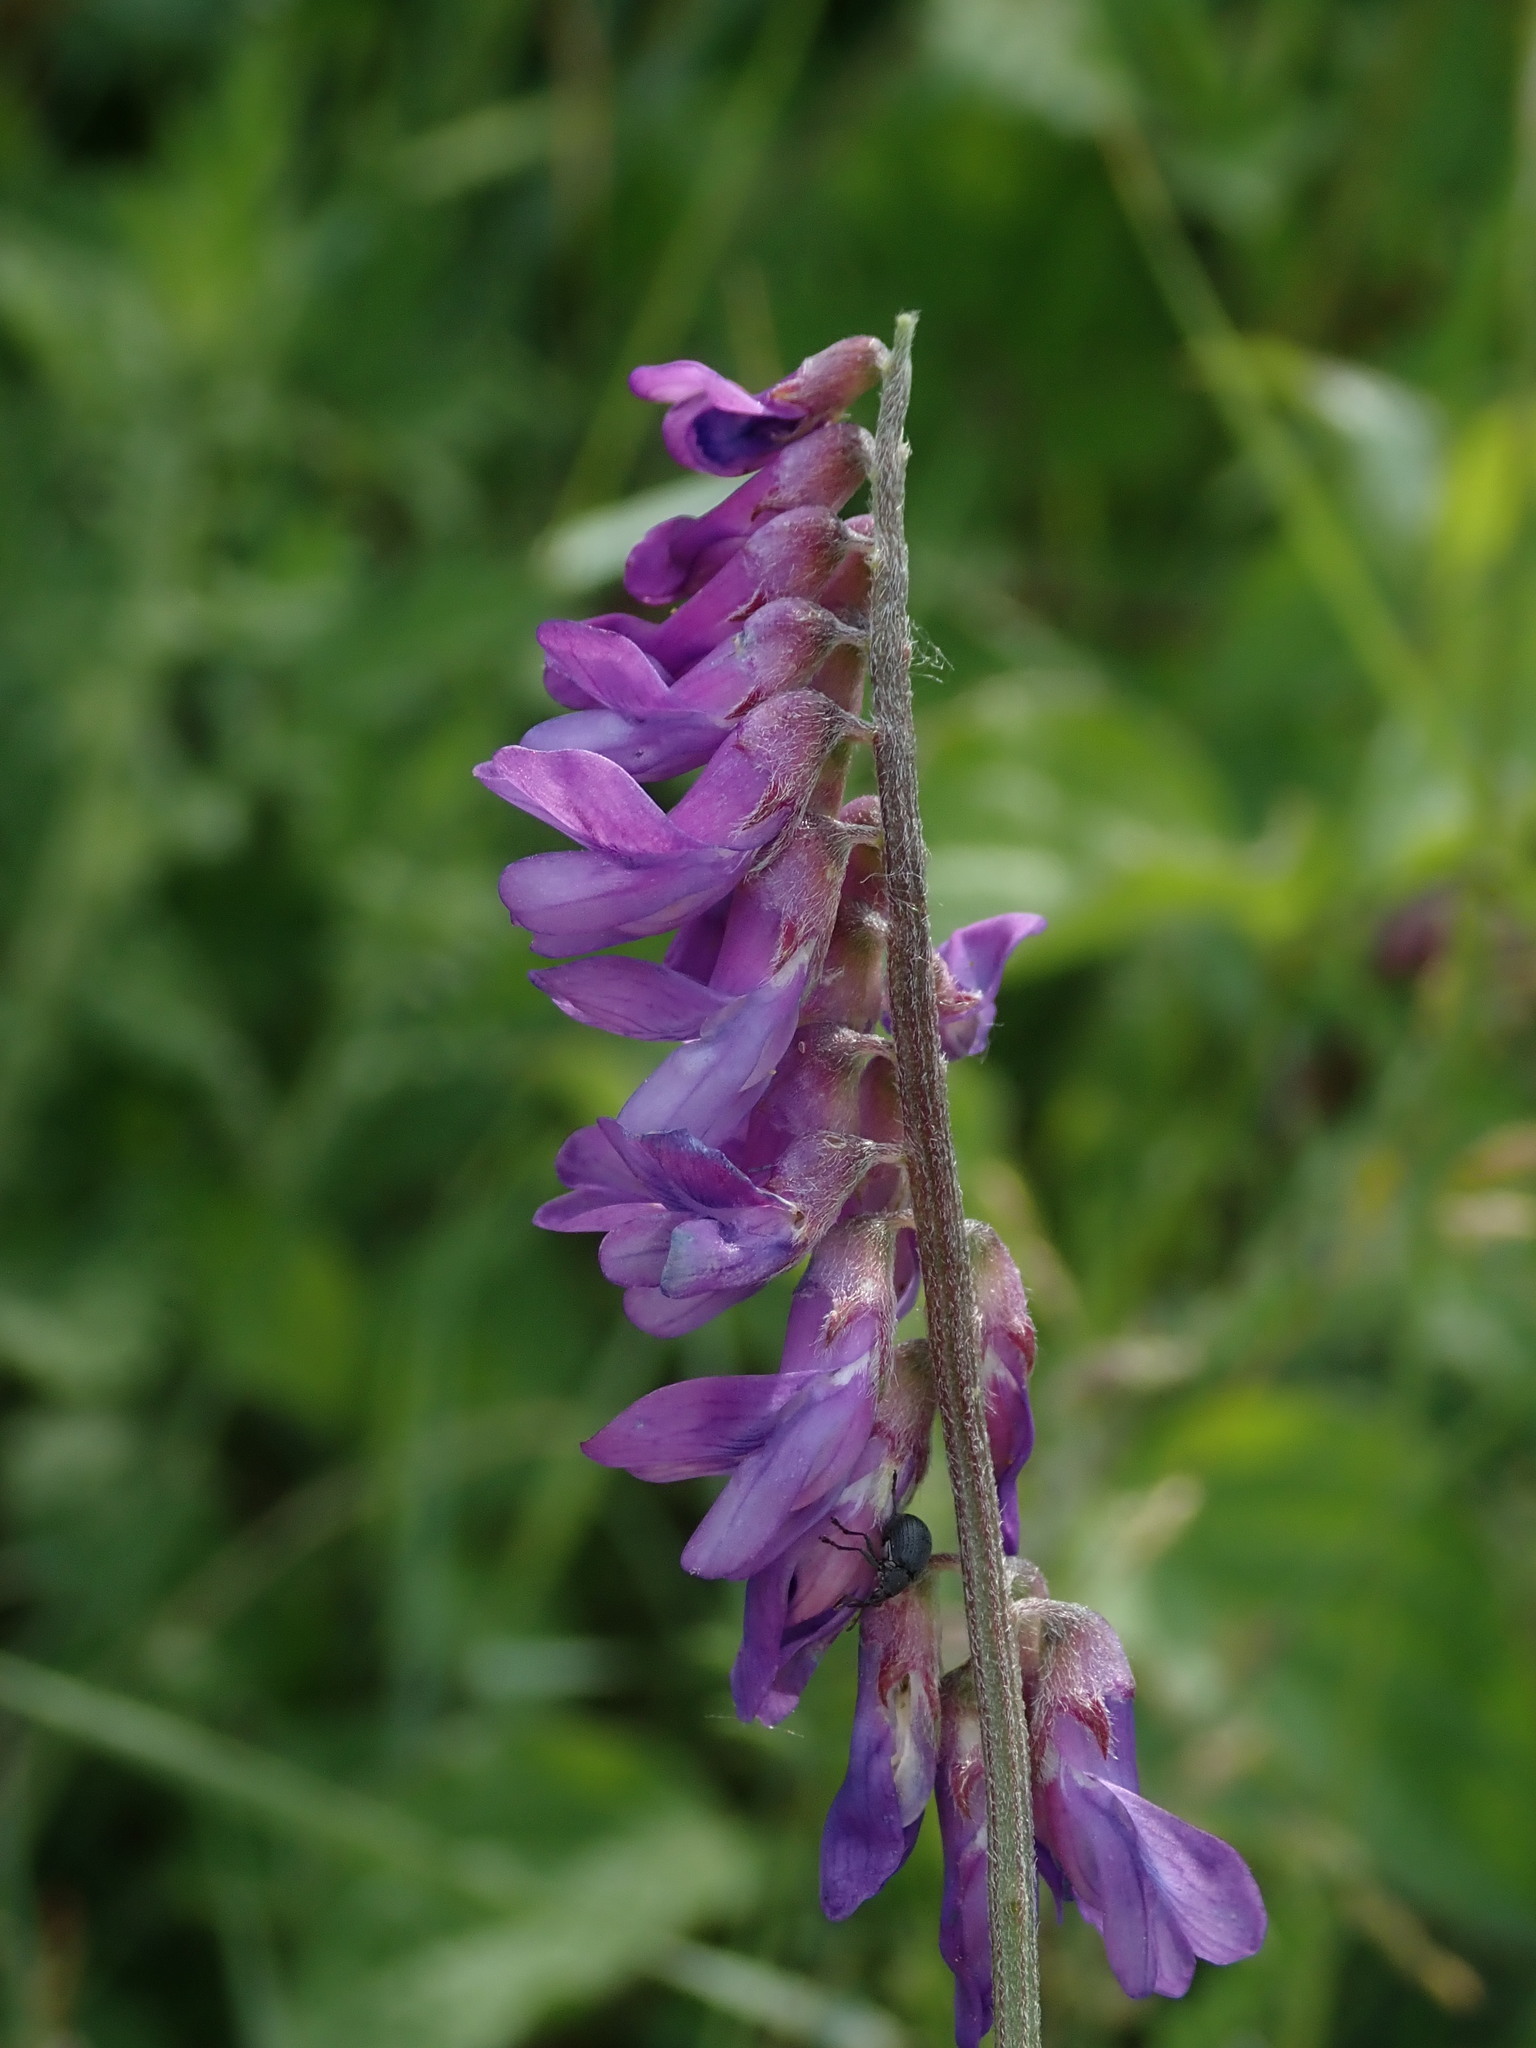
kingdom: Plantae
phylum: Tracheophyta
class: Magnoliopsida
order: Fabales
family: Fabaceae
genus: Vicia
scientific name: Vicia cracca
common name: Bird vetch
